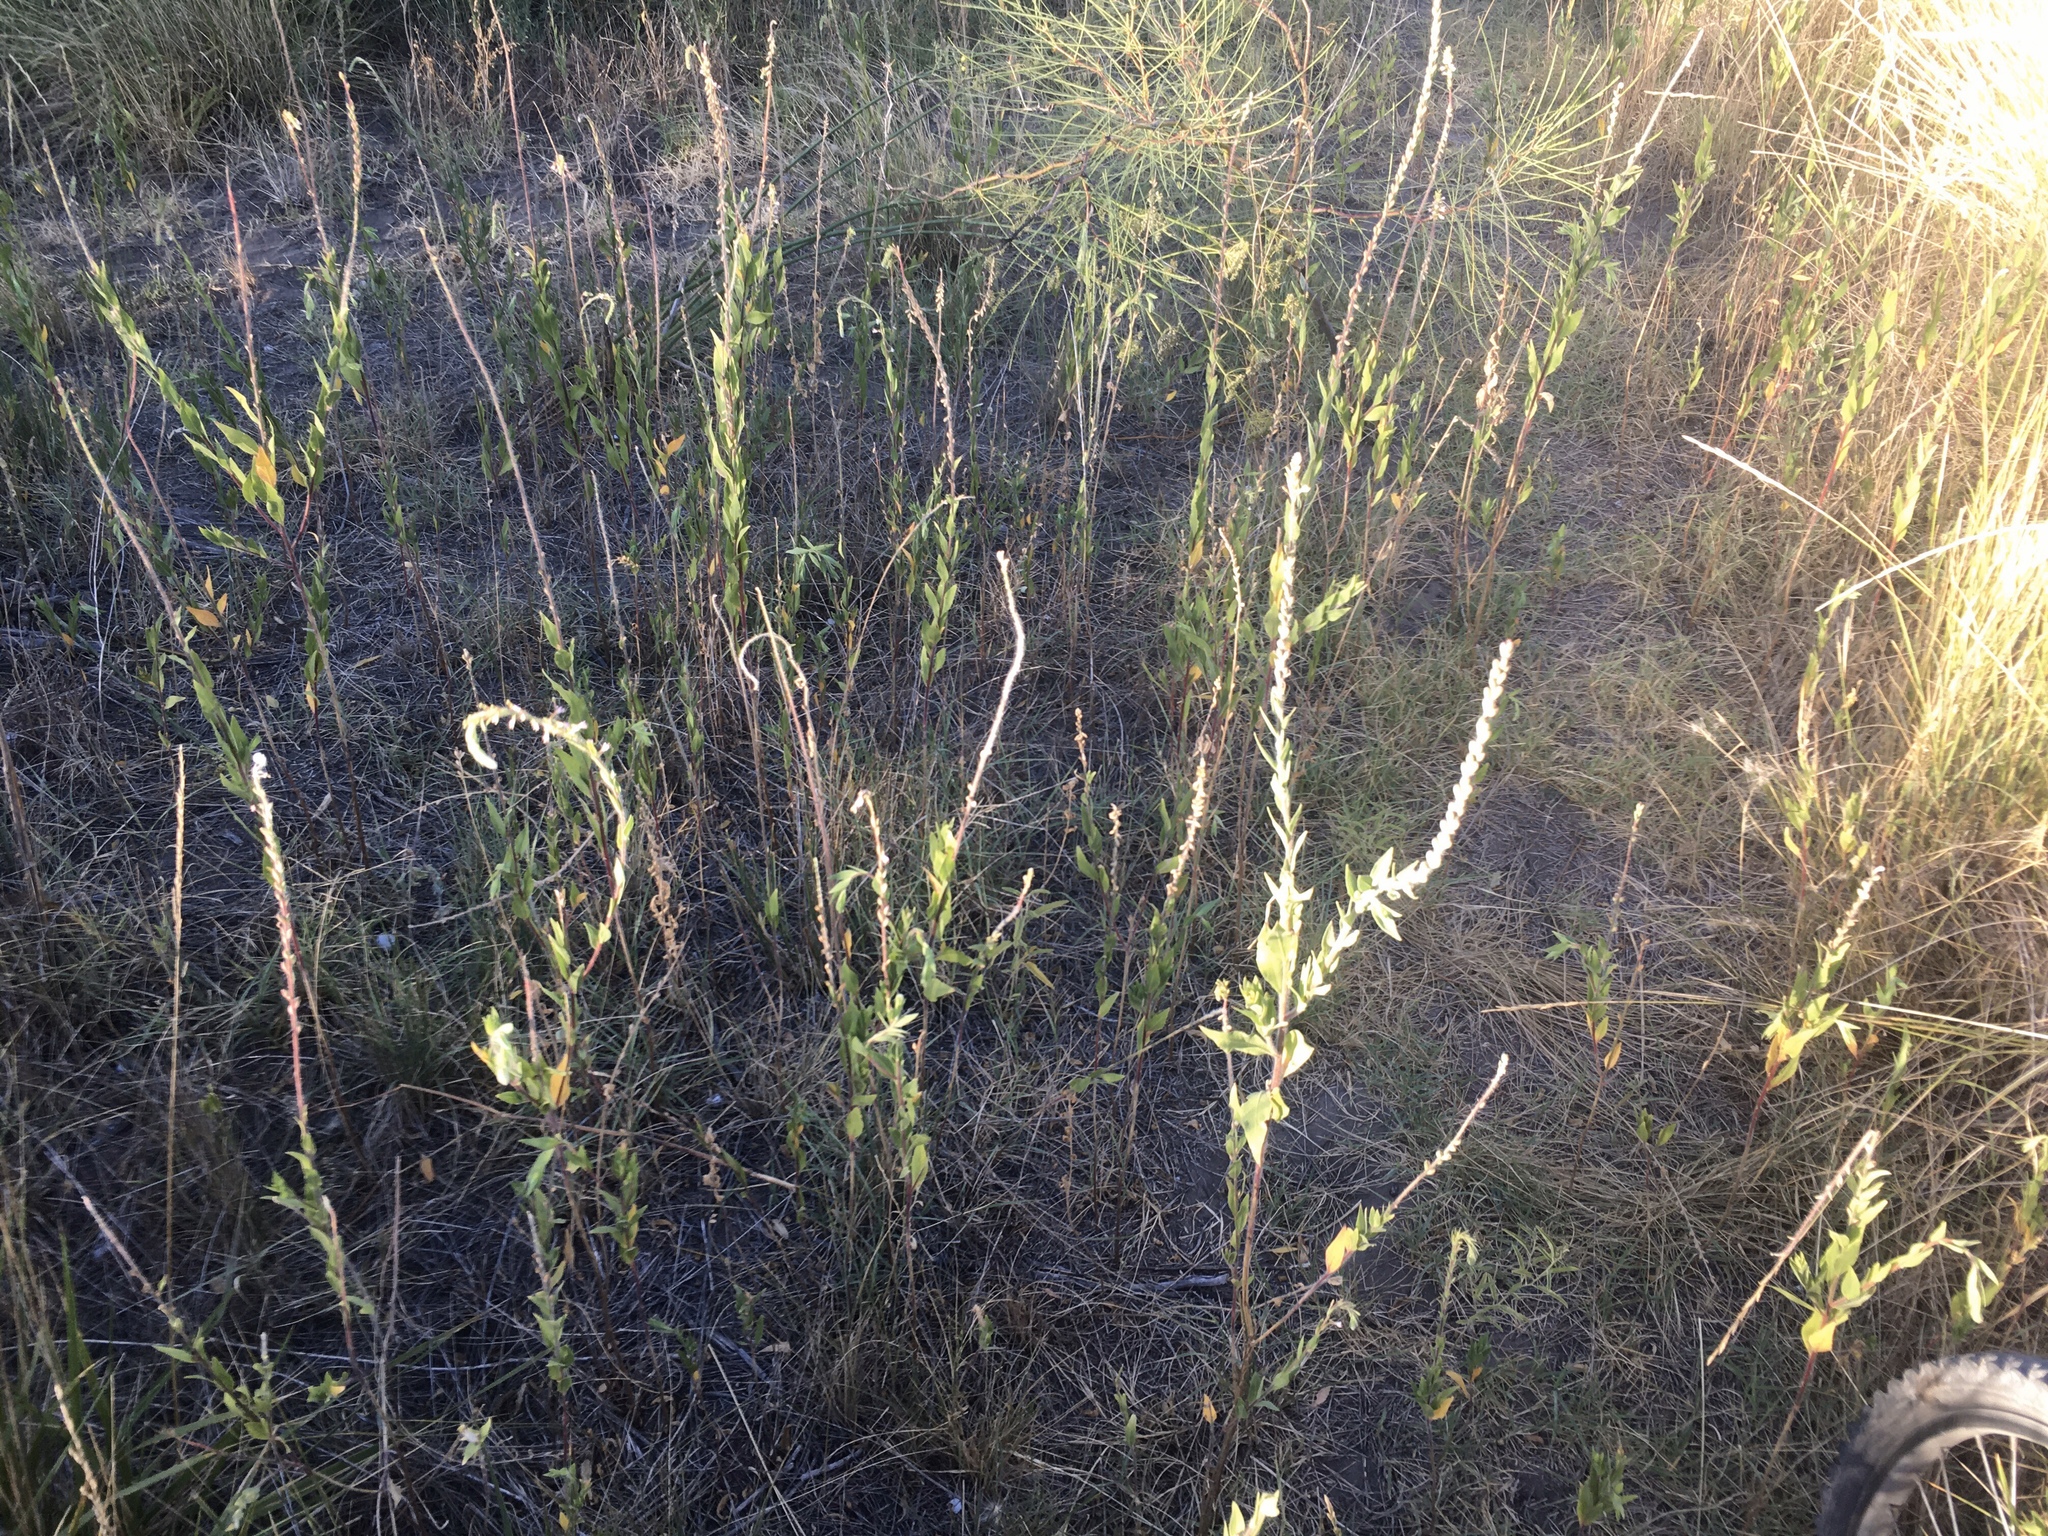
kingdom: Plantae
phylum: Tracheophyta
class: Magnoliopsida
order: Myrtales
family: Onagraceae
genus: Oenothera
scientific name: Oenothera curtiflora
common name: Velvetweed
